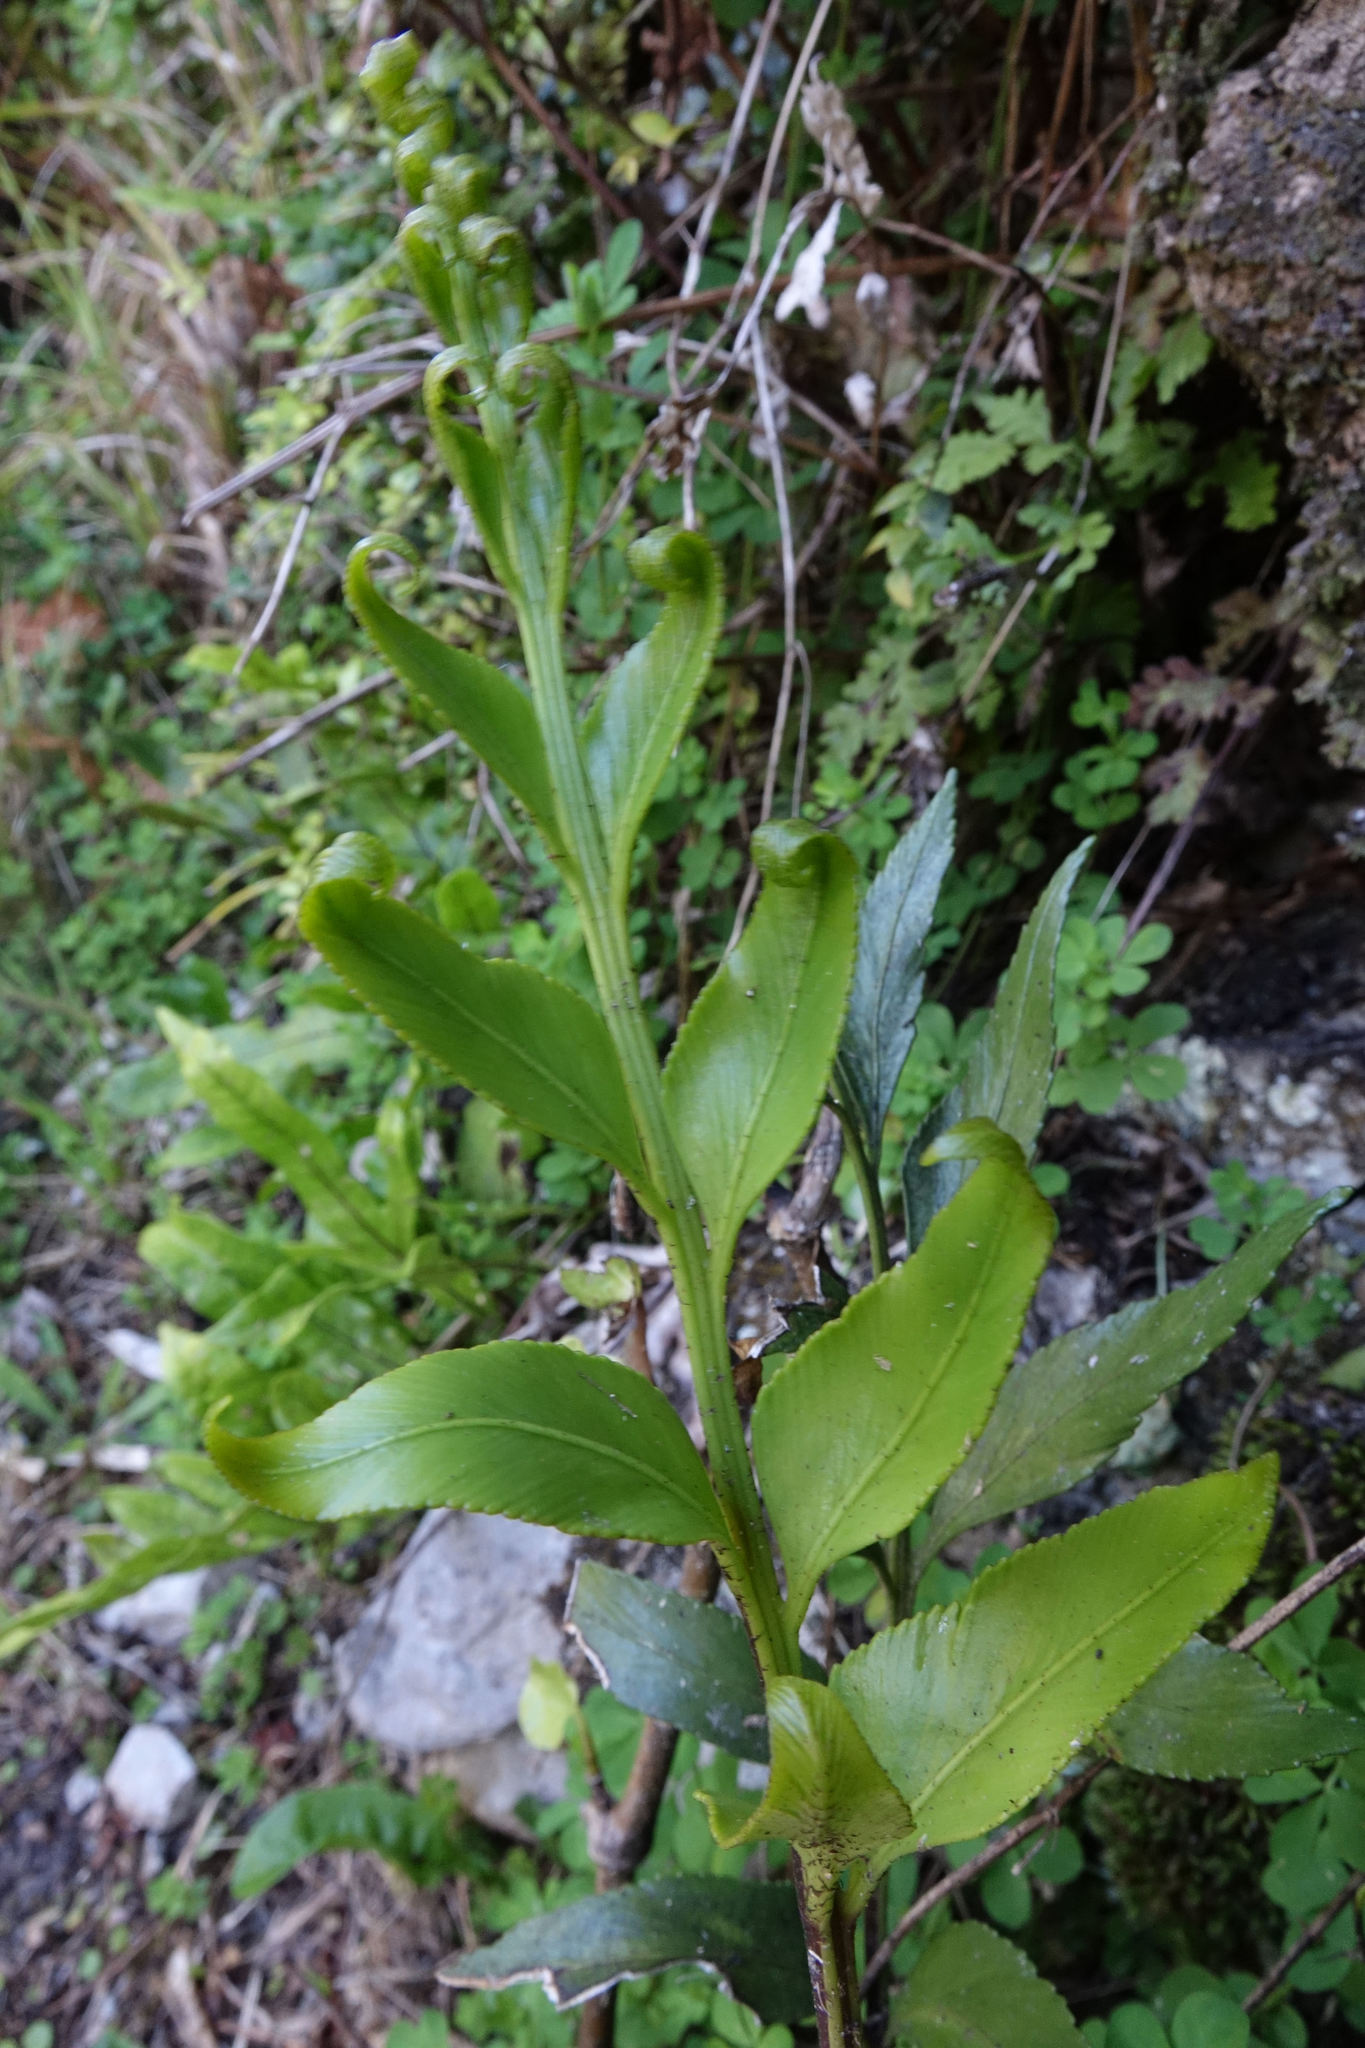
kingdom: Plantae
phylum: Tracheophyta
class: Polypodiopsida
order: Polypodiales
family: Aspleniaceae
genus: Asplenium
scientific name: Asplenium lepidotum
